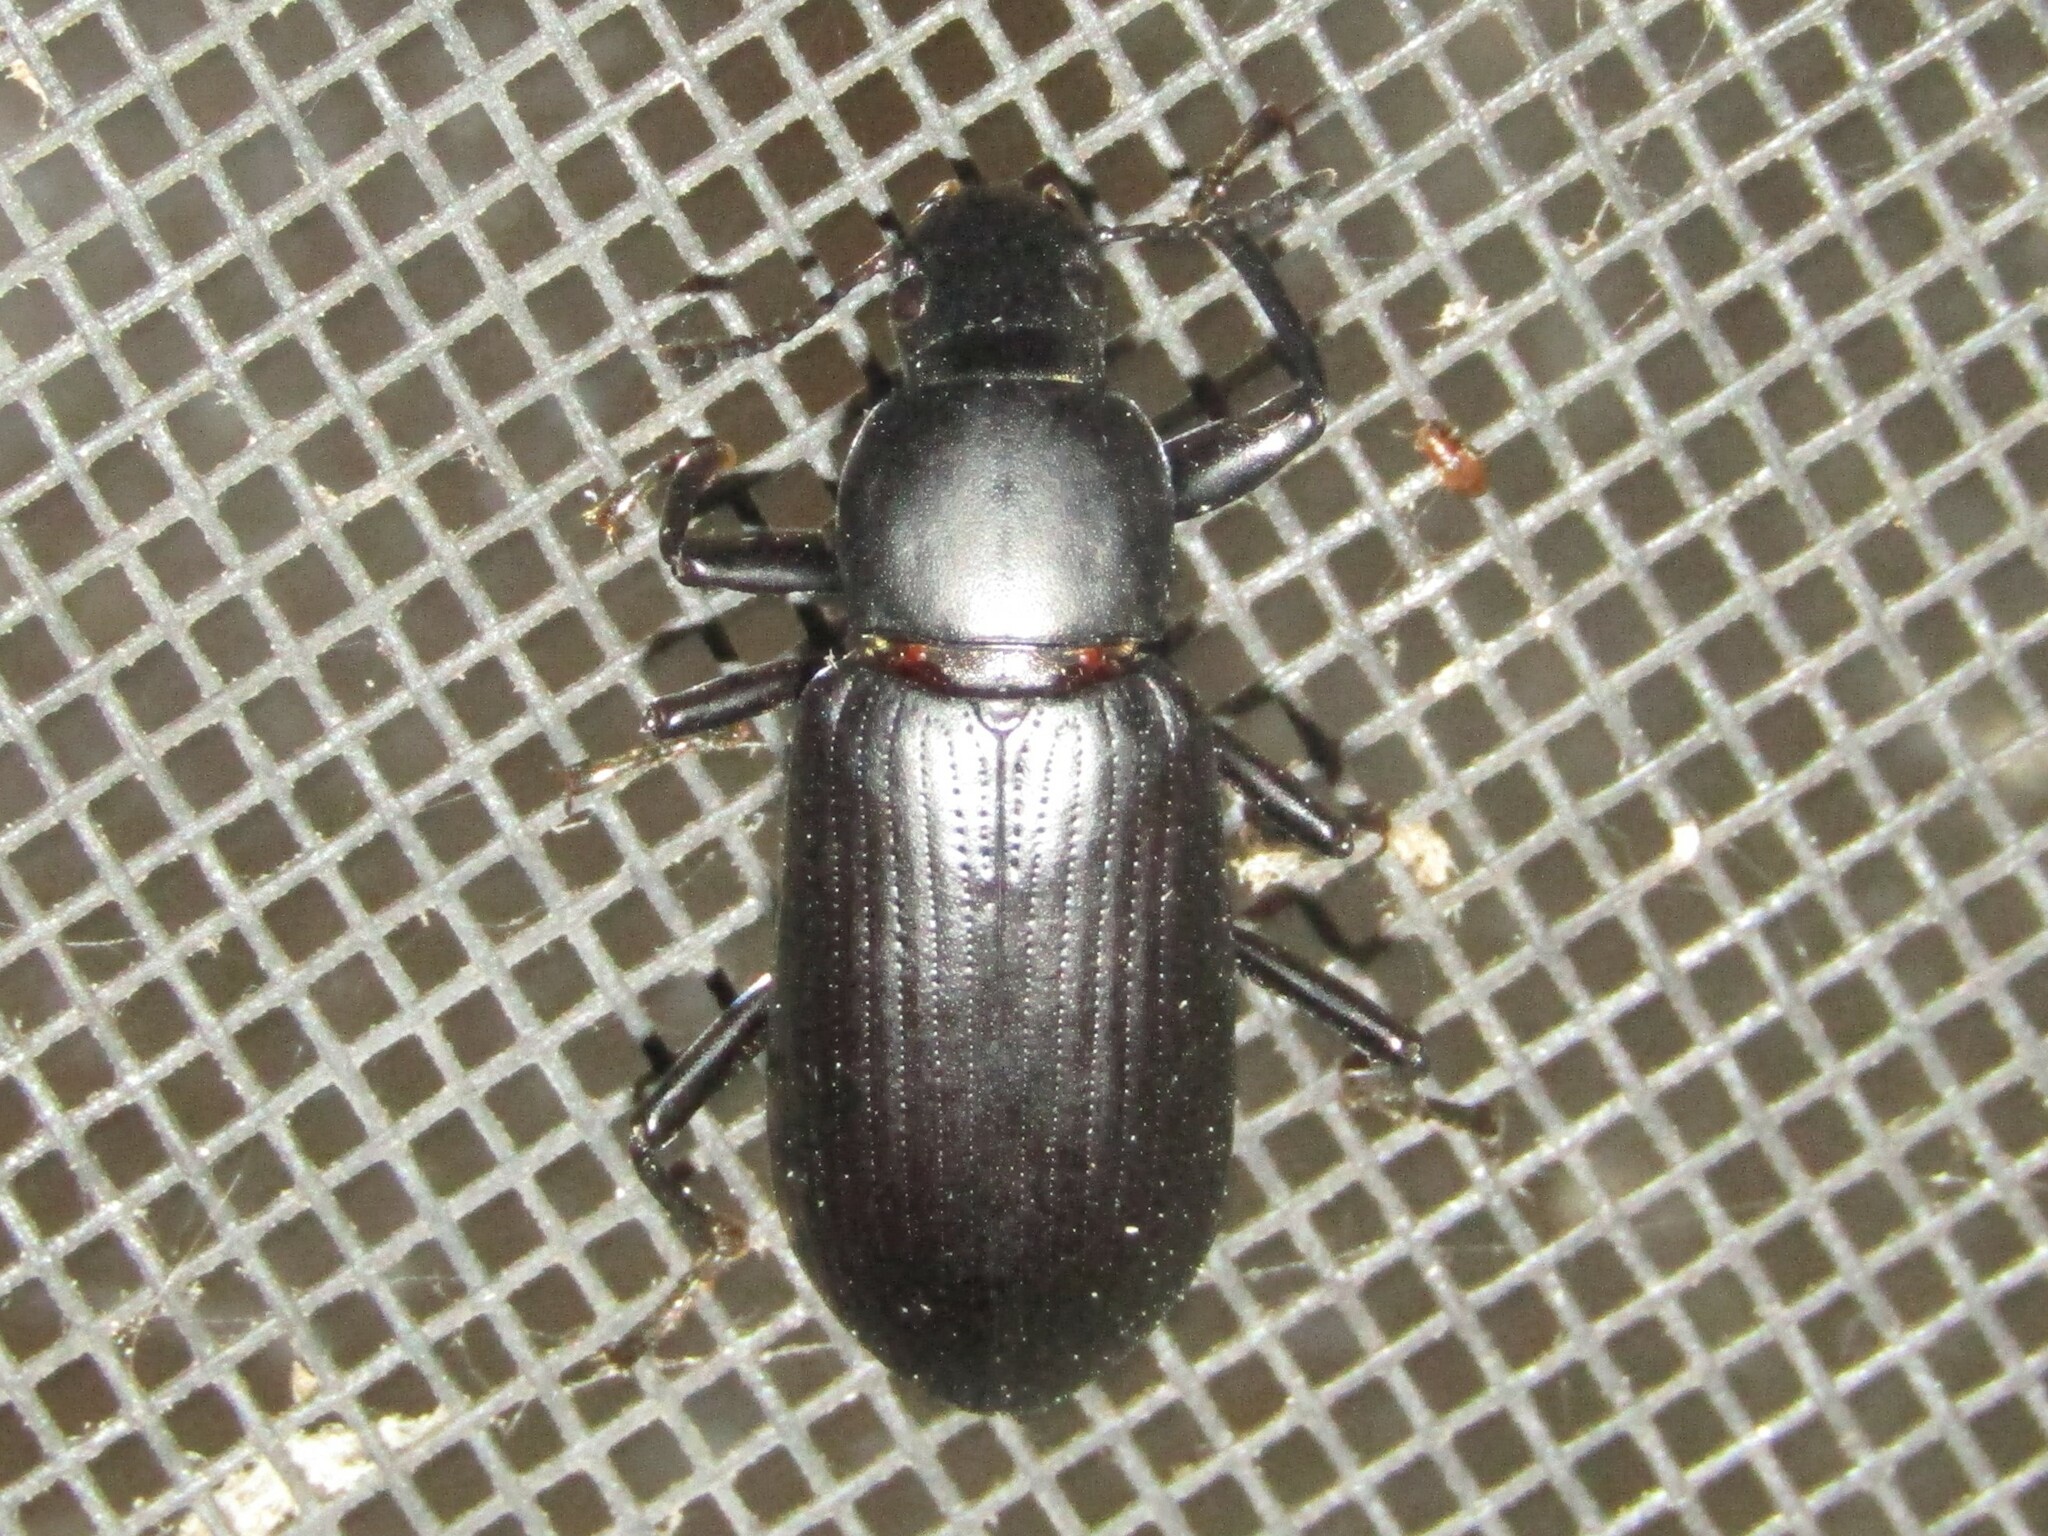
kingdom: Animalia
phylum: Arthropoda
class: Insecta
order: Coleoptera
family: Tenebrionidae
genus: Alobates
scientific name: Alobates
